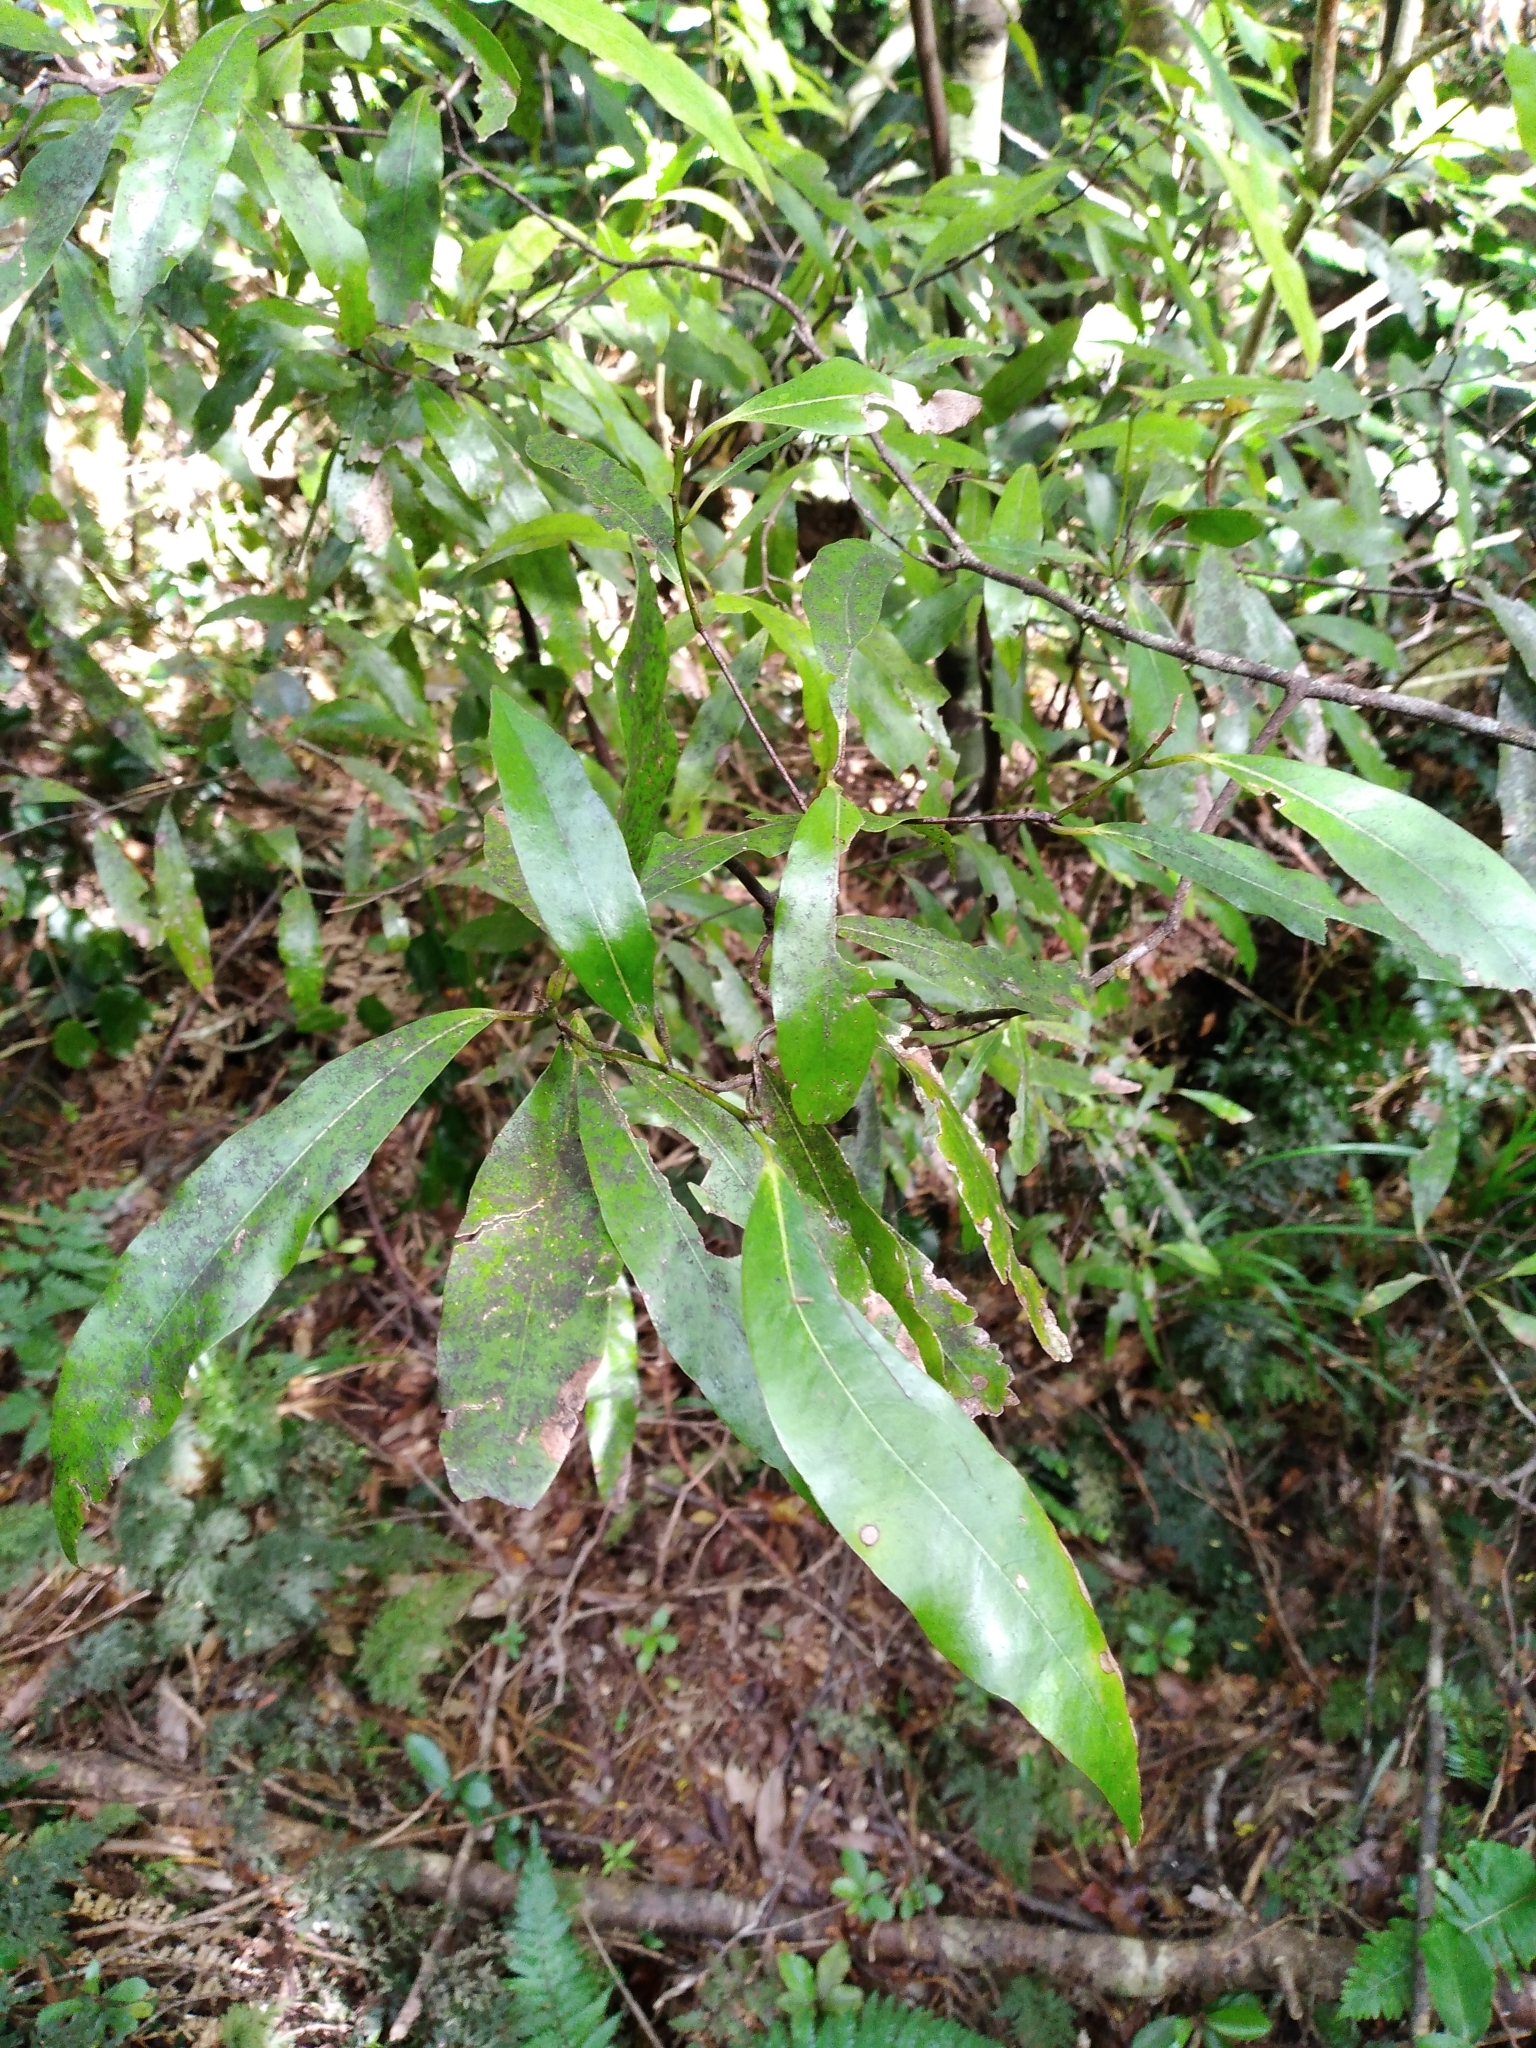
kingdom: Plantae
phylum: Tracheophyta
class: Magnoliopsida
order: Laurales
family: Lauraceae
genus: Beilschmiedia
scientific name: Beilschmiedia tawa
